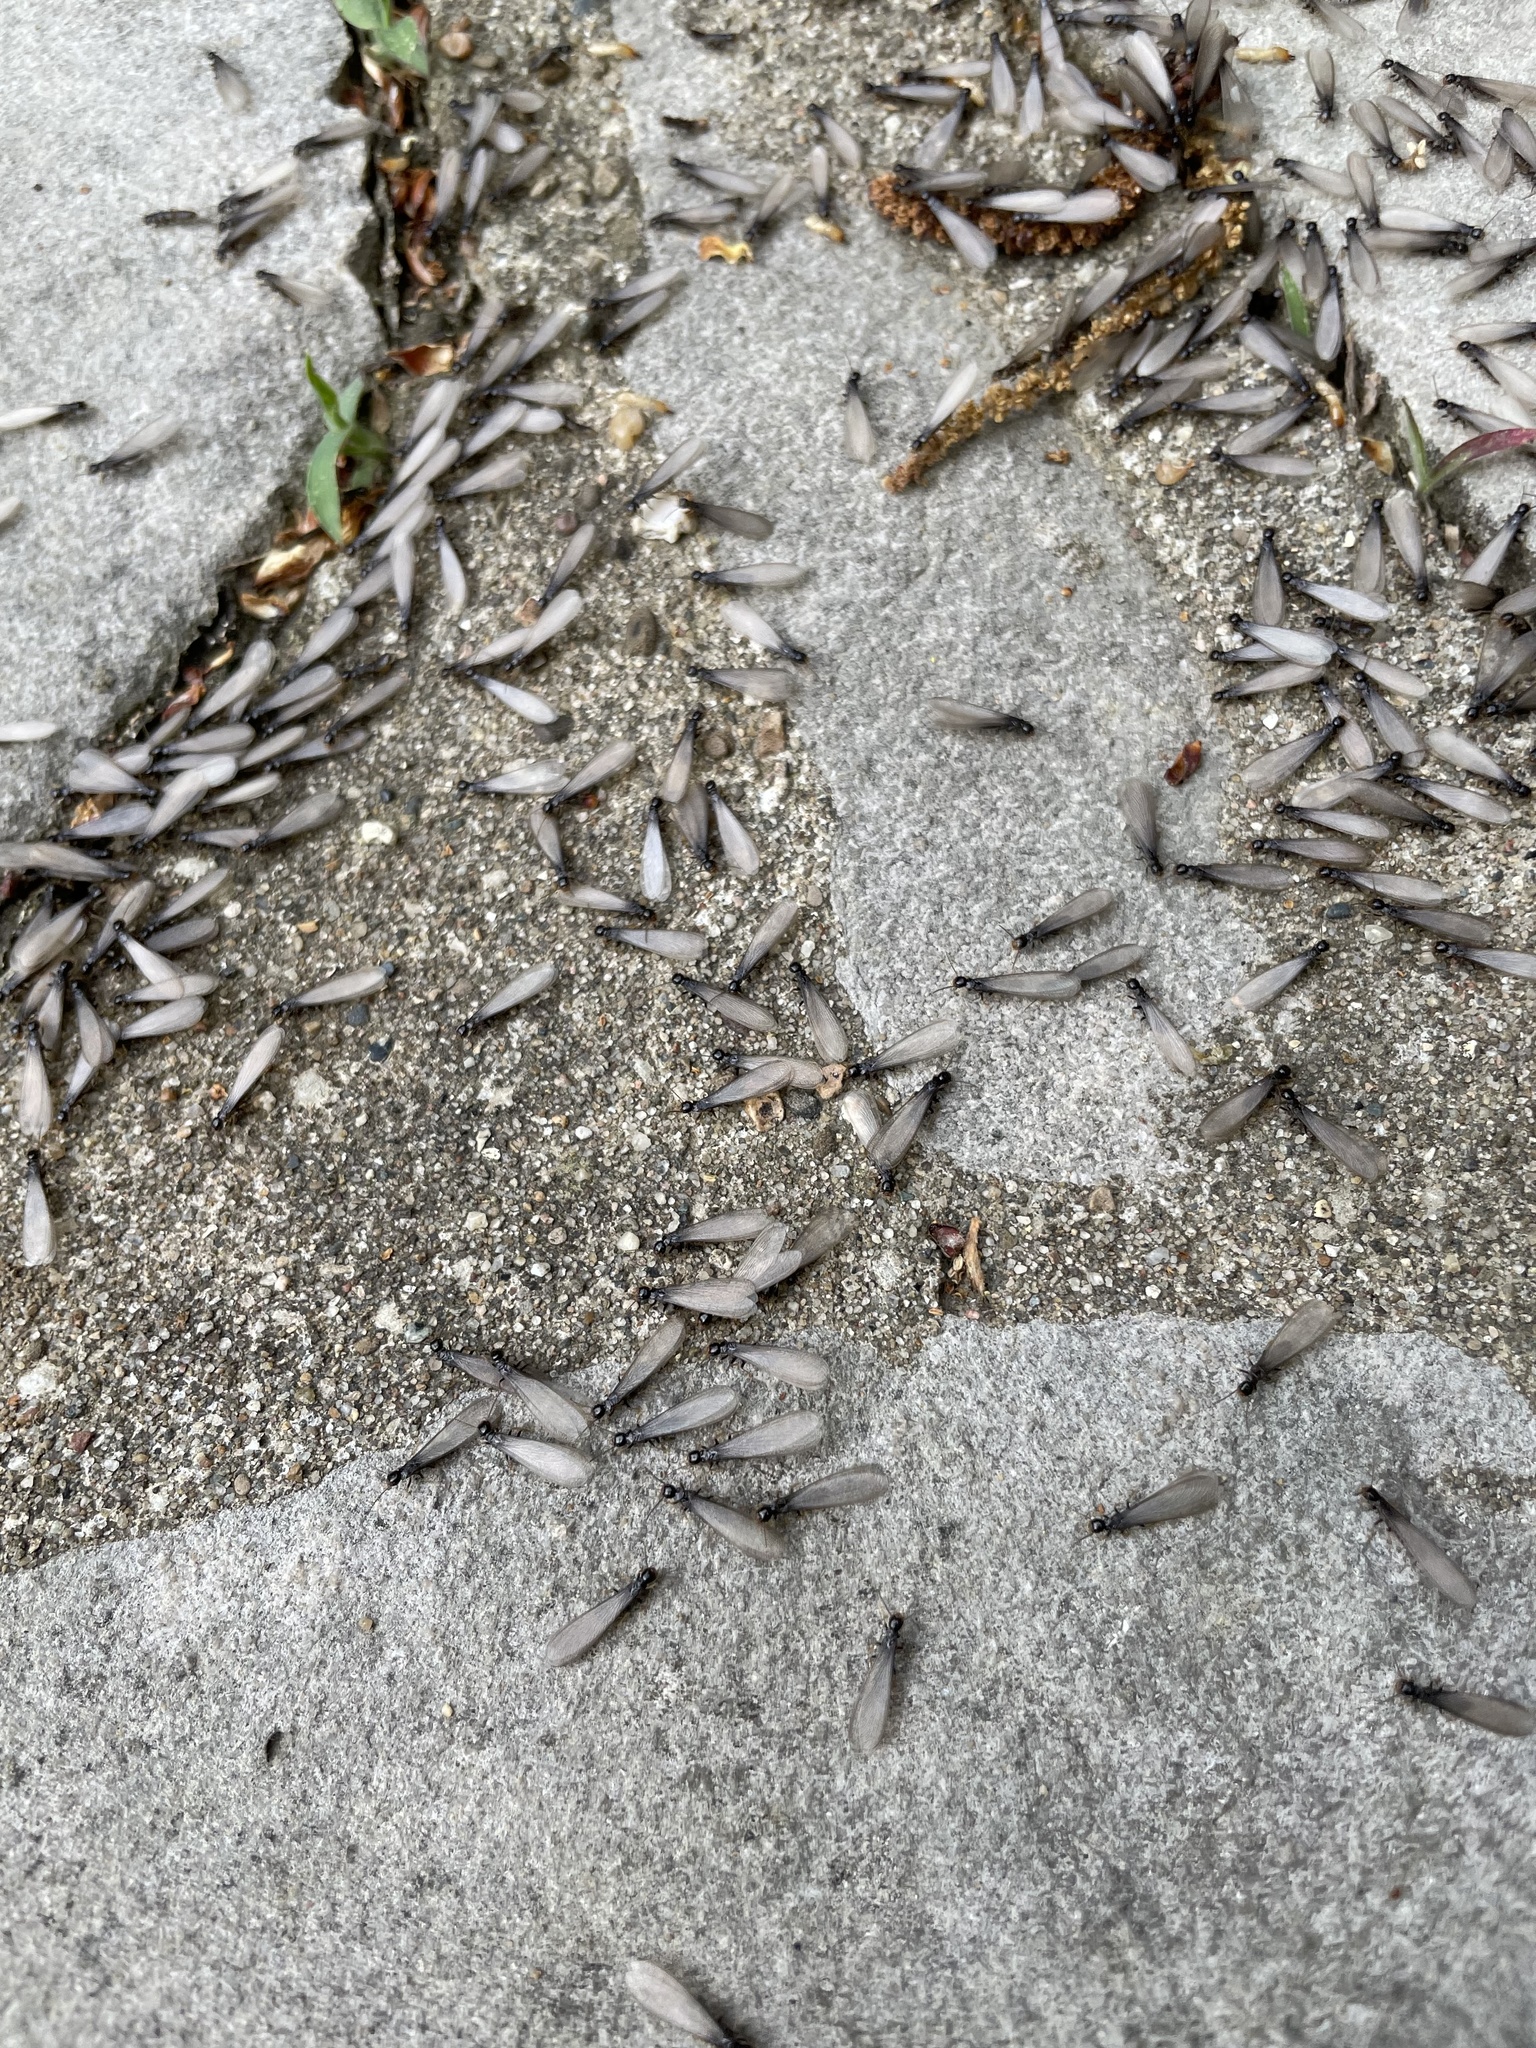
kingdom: Animalia
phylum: Arthropoda
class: Insecta
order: Blattodea
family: Rhinotermitidae
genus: Reticulitermes
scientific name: Reticulitermes flavipes
